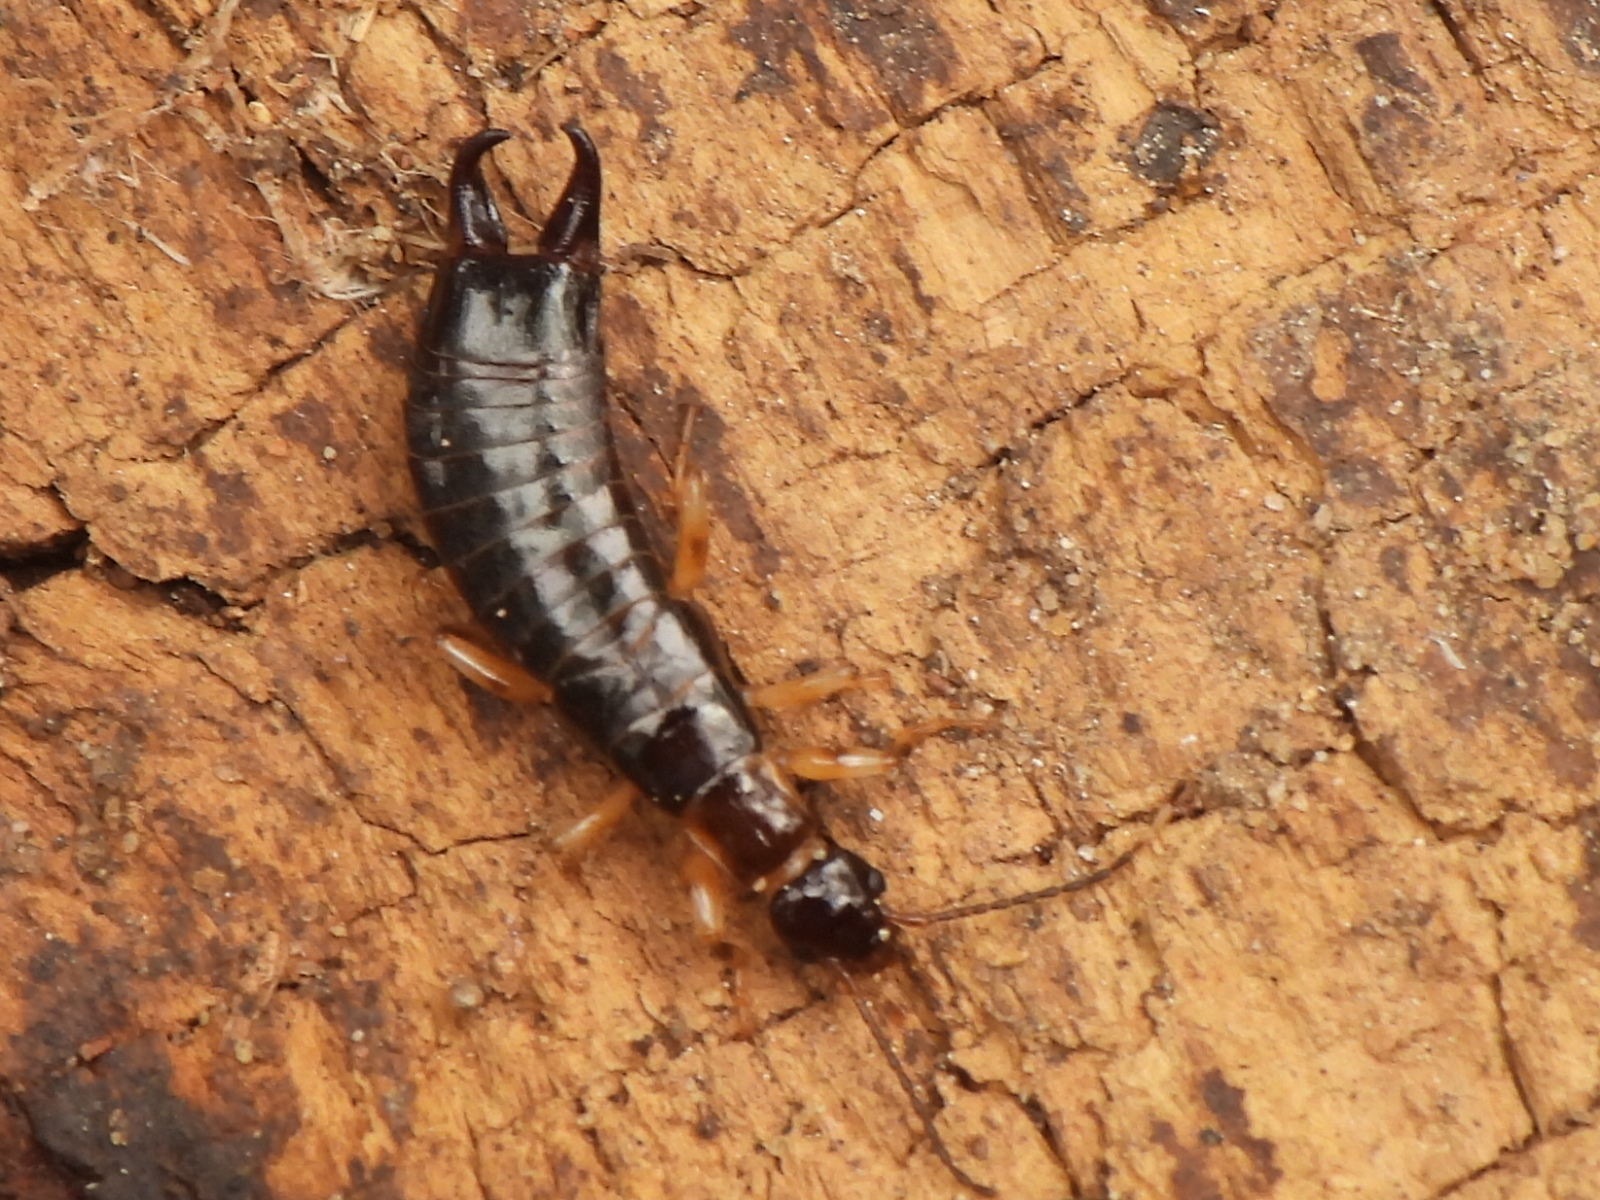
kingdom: Animalia
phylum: Arthropoda
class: Insecta
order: Dermaptera
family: Anisolabididae
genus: Euborellia
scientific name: Euborellia annulipes
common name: Ringlegged earwig
